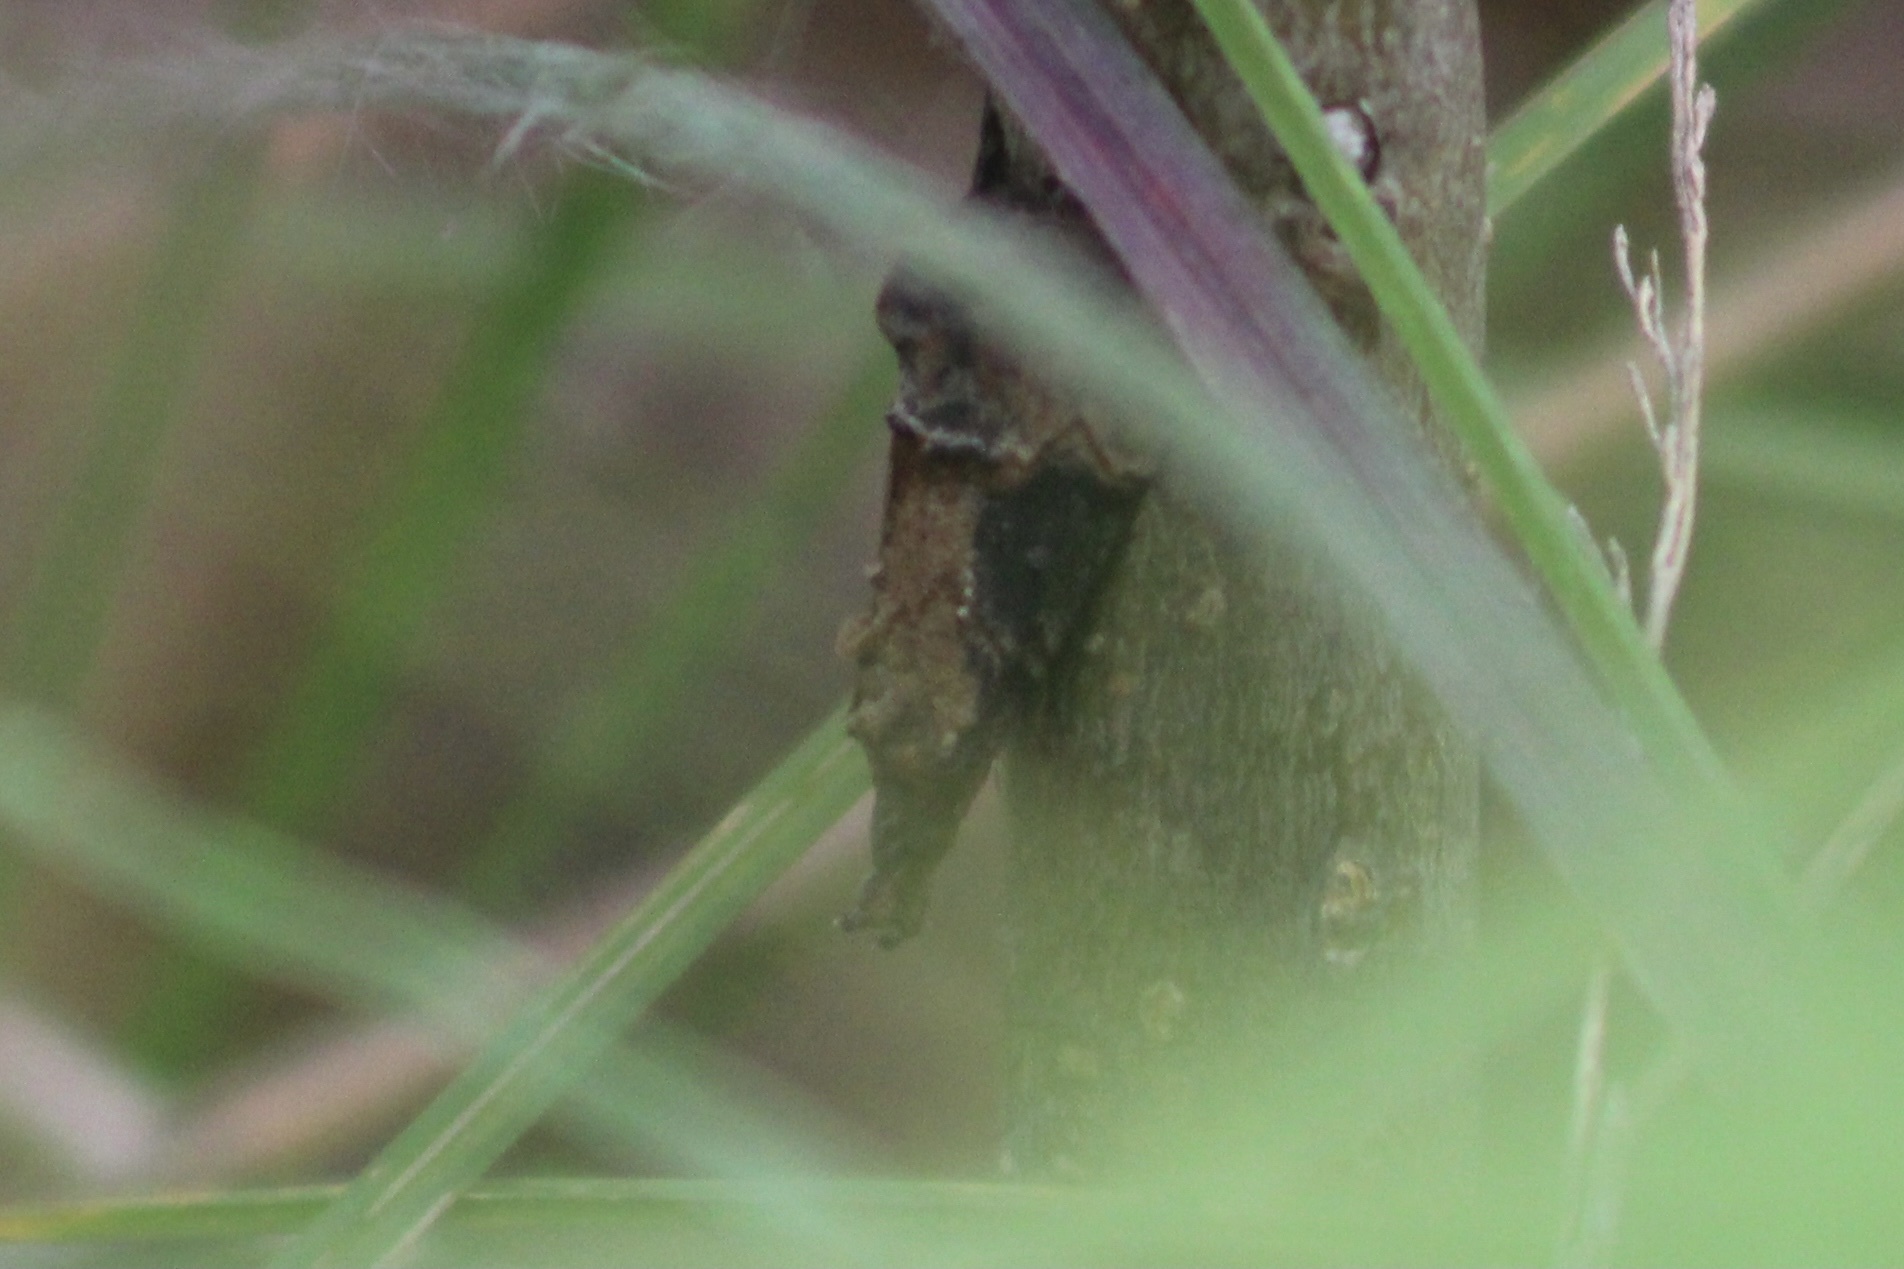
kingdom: Animalia
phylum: Arthropoda
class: Insecta
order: Lepidoptera
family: Erebidae
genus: Hypena
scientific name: Hypena scabra
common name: Green cloverworm
